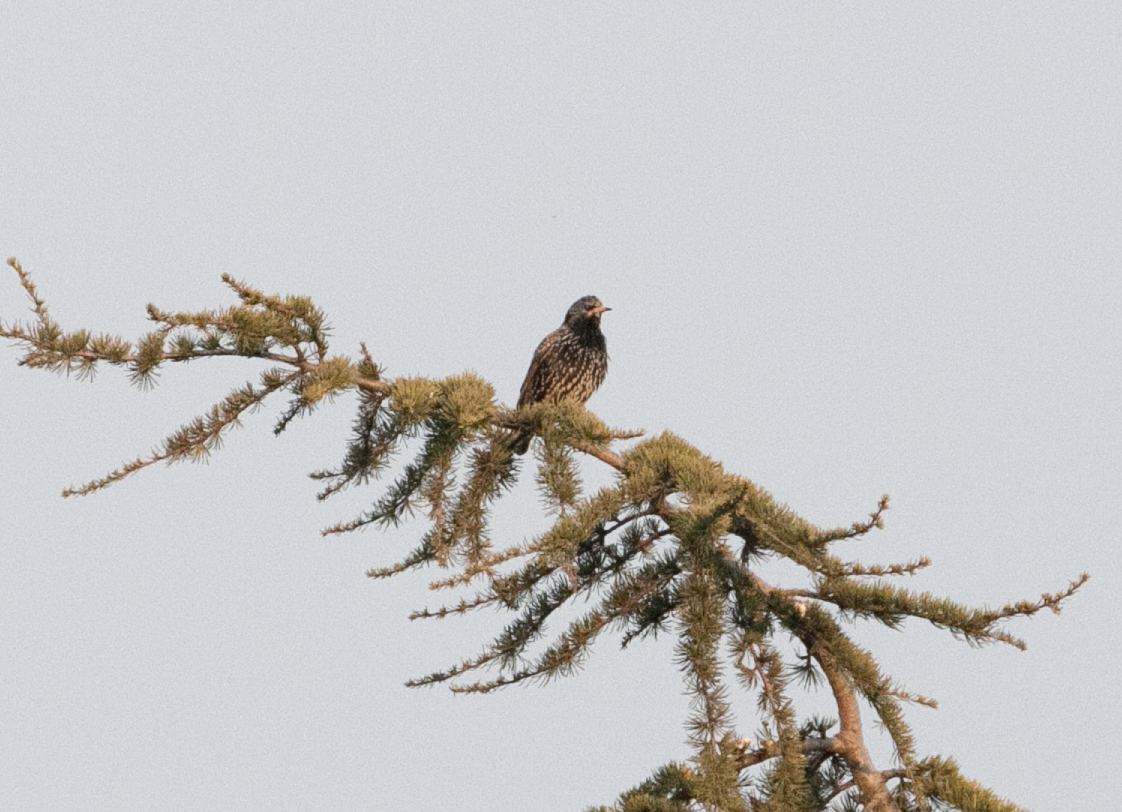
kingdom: Animalia
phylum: Chordata
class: Aves
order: Passeriformes
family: Sturnidae
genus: Sturnus
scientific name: Sturnus vulgaris
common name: Common starling
